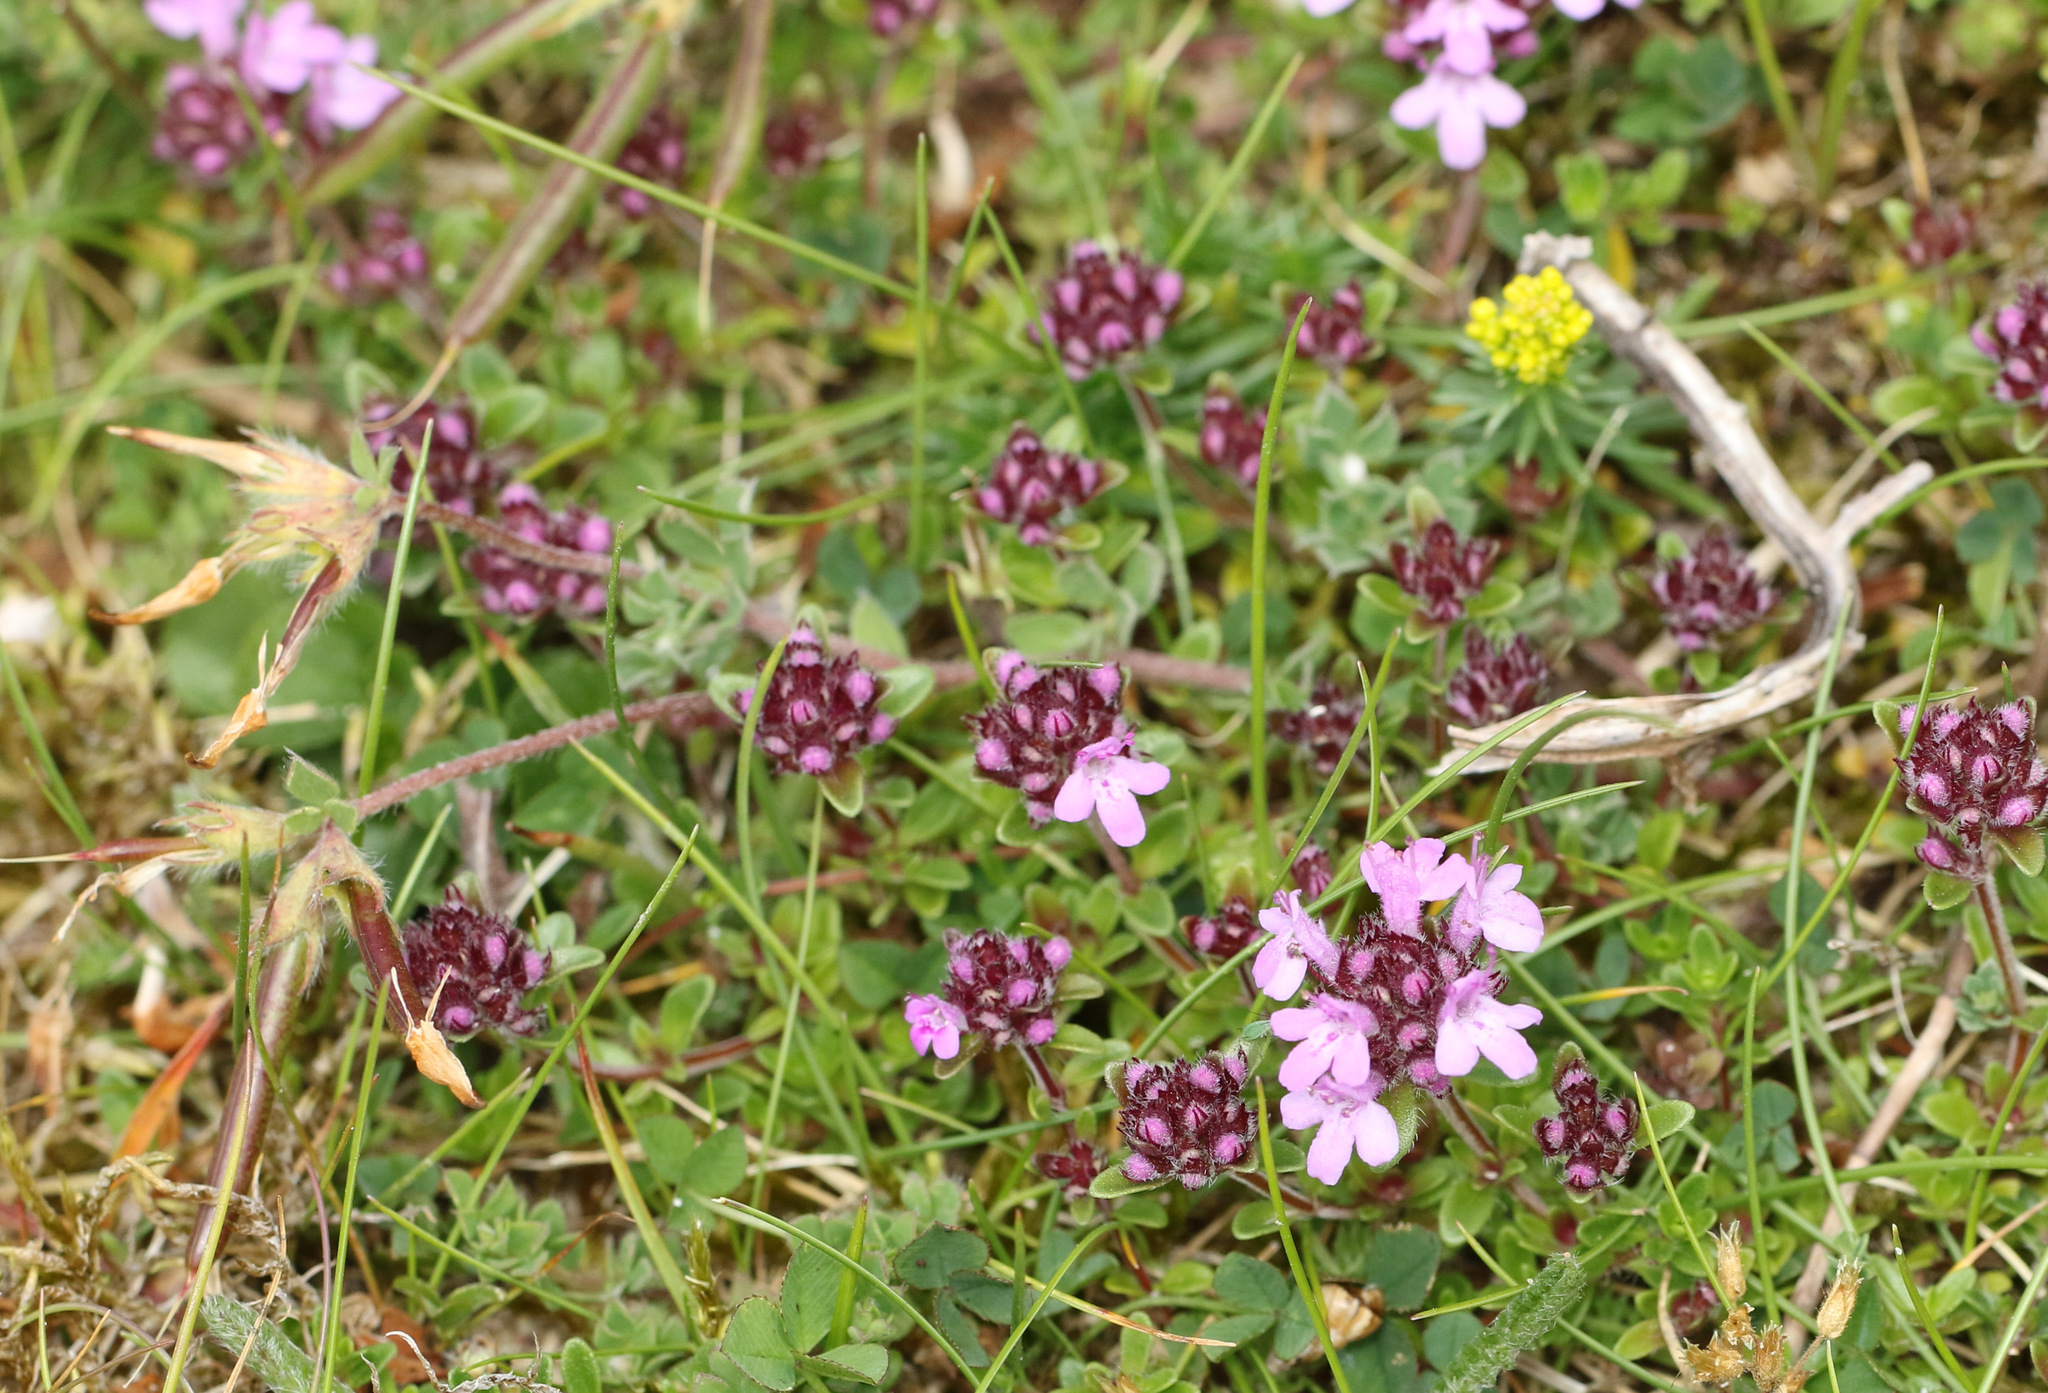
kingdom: Plantae
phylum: Tracheophyta
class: Magnoliopsida
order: Lamiales
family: Lamiaceae
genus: Thymus
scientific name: Thymus praecox
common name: Wild thyme
